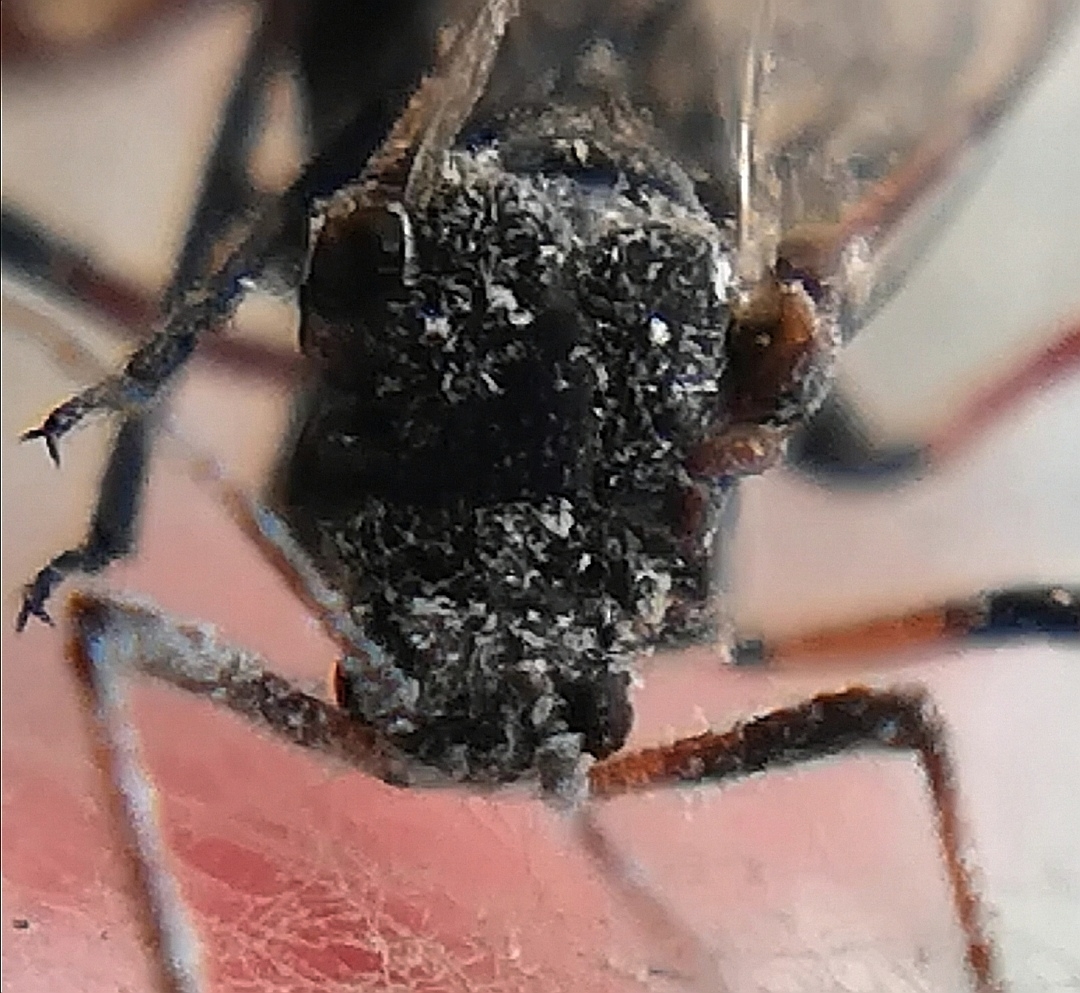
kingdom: Animalia
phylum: Arthropoda
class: Insecta
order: Hemiptera
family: Aphididae
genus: Tuberolachnus
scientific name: Tuberolachnus salignus
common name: Giant willow aphid
